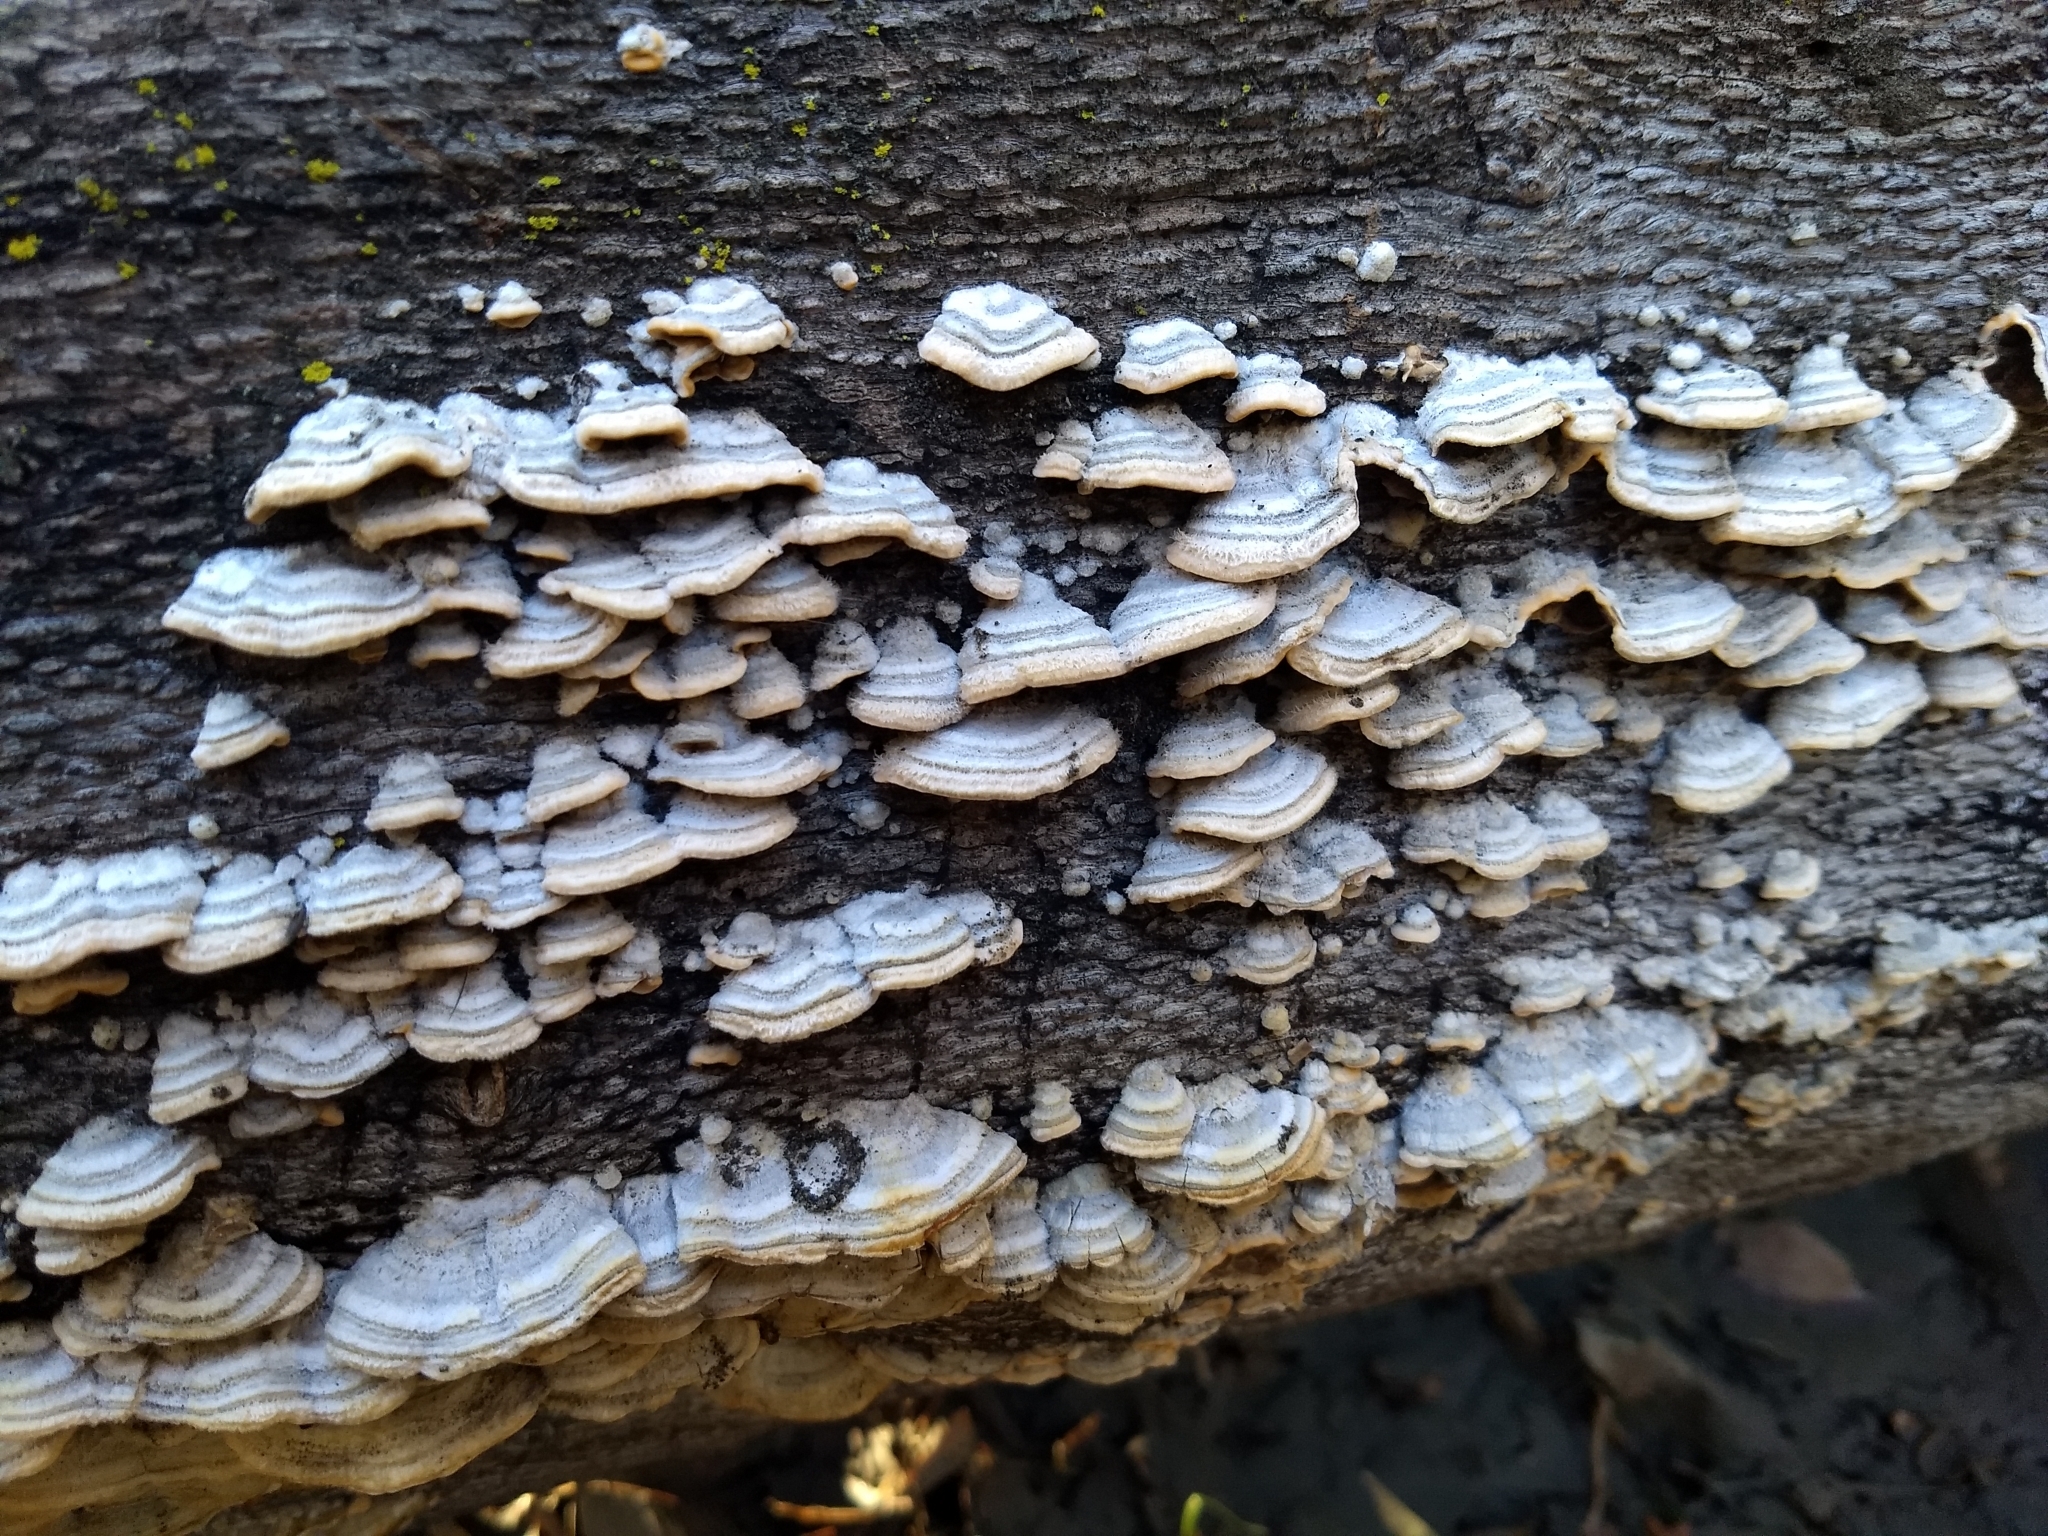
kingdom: Fungi
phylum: Basidiomycota
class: Agaricomycetes
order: Hymenochaetales
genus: Trichaptum
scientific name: Trichaptum abietinum
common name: Purplepore bracket
